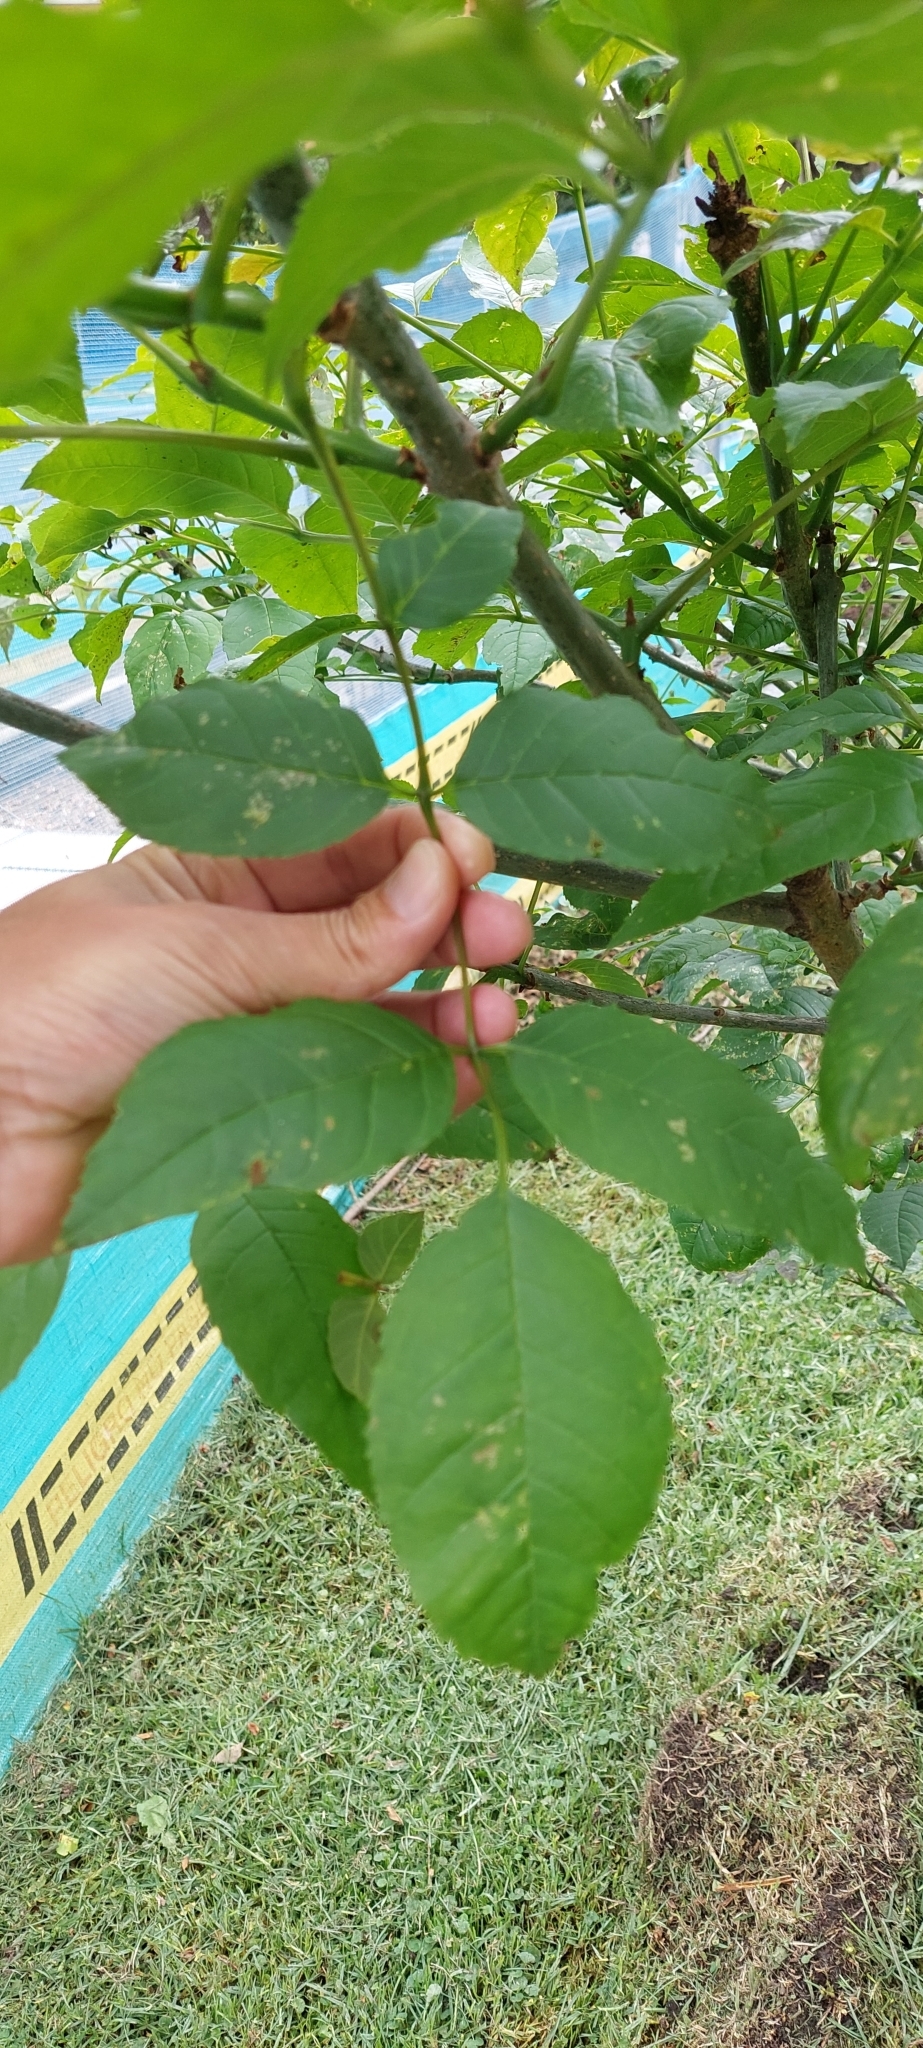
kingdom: Plantae
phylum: Tracheophyta
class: Magnoliopsida
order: Lamiales
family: Oleaceae
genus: Fraxinus
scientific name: Fraxinus uhdei
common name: Shamel ash
